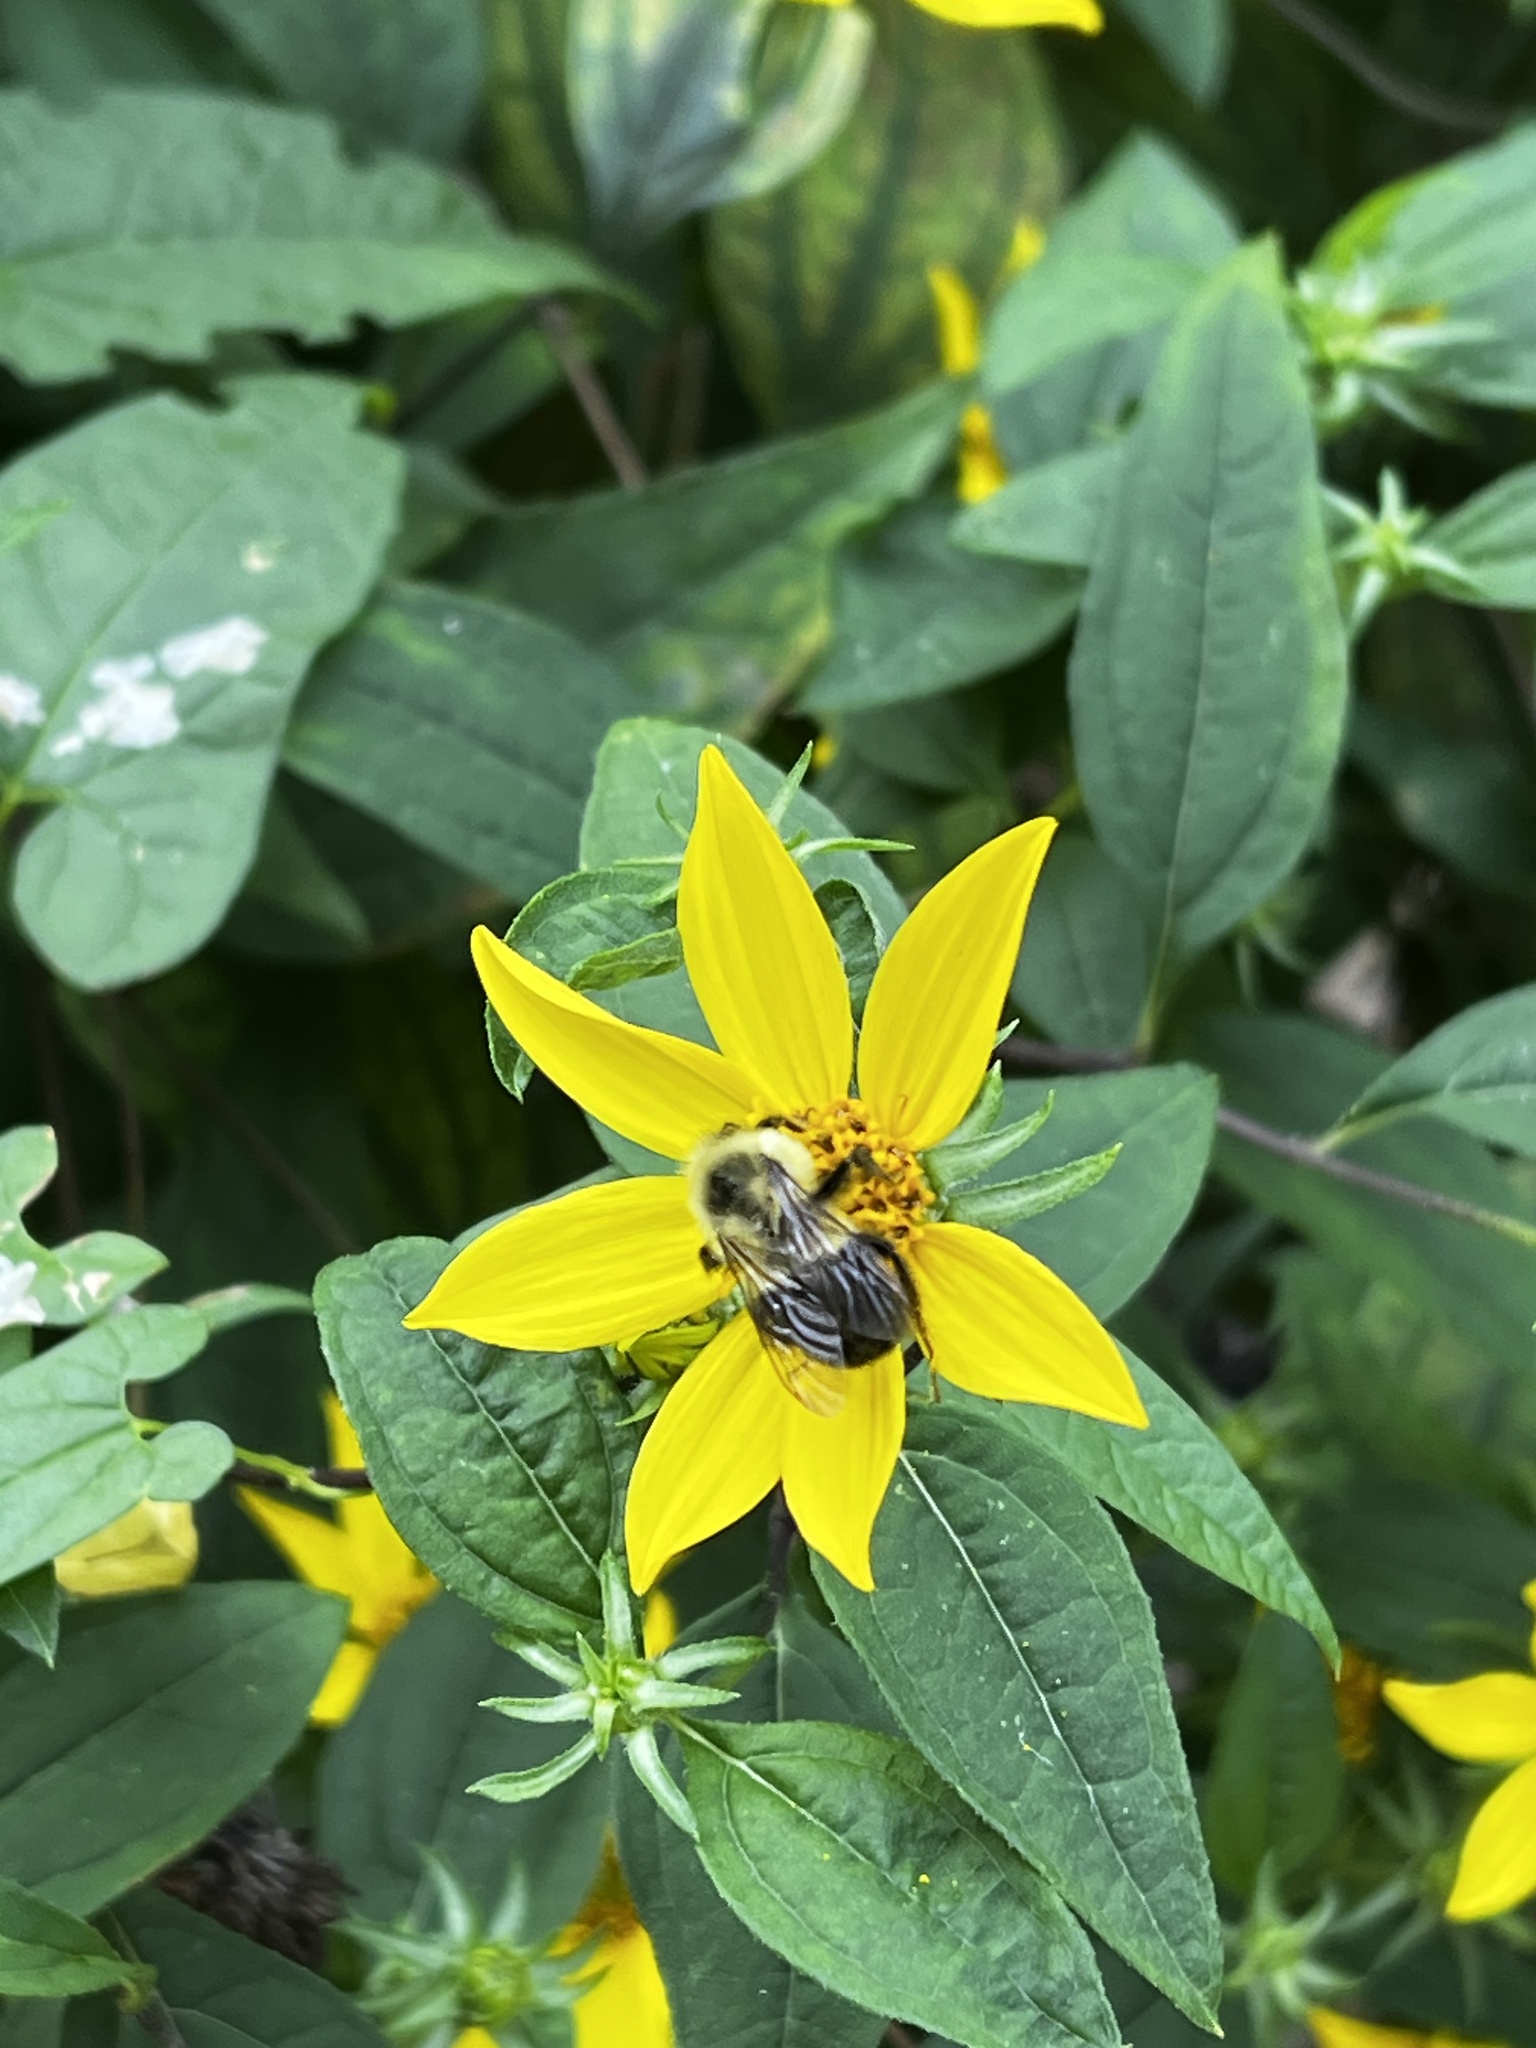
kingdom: Animalia
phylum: Arthropoda
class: Insecta
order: Hymenoptera
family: Apidae
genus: Bombus
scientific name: Bombus impatiens
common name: Common eastern bumble bee
